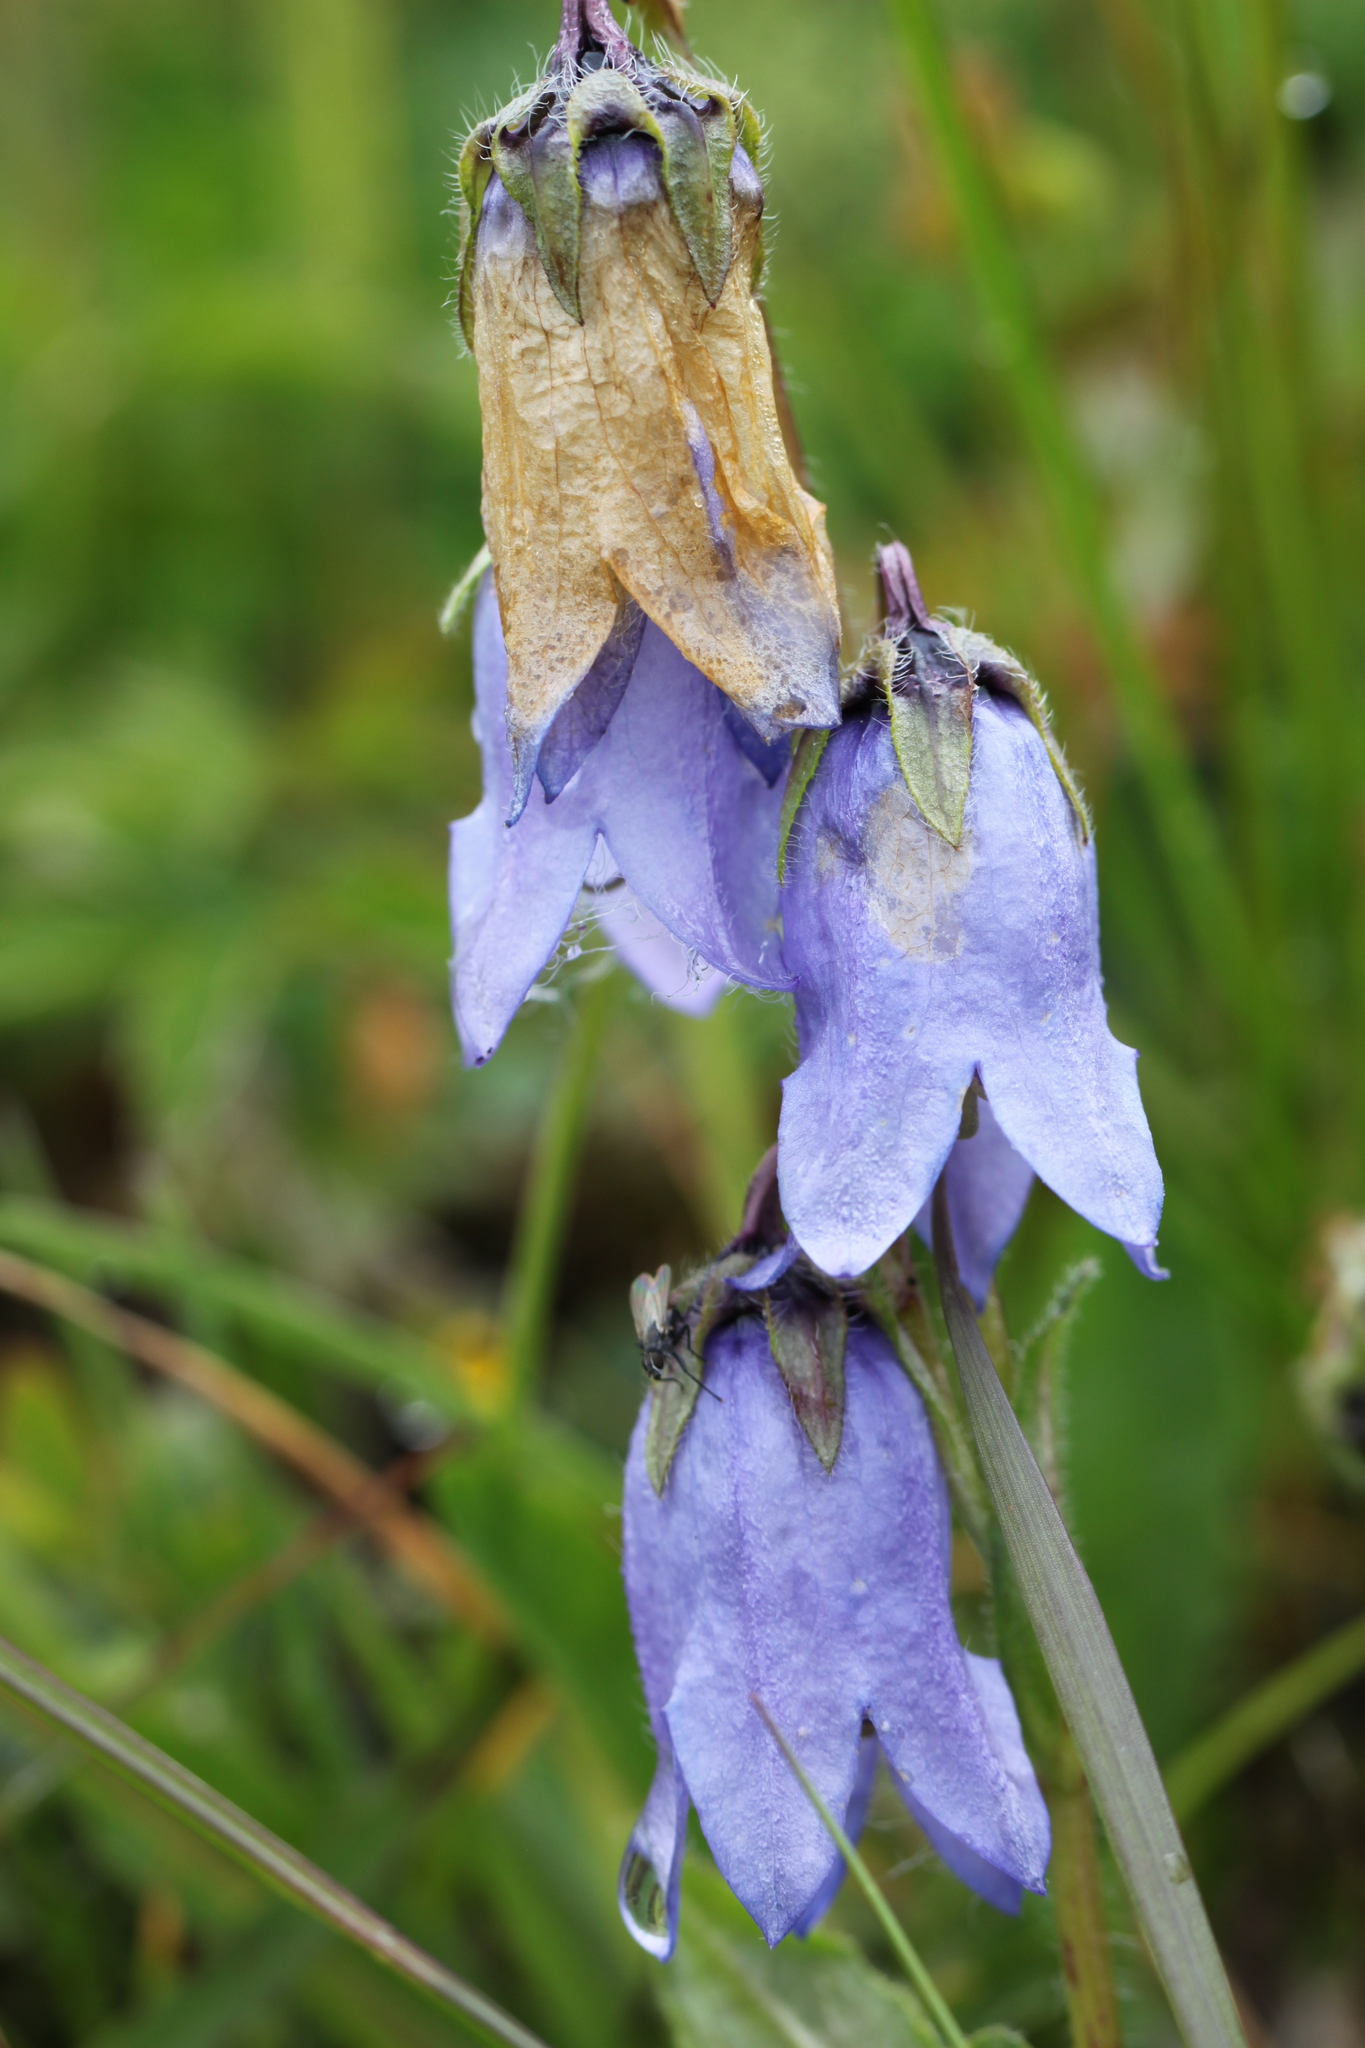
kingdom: Plantae
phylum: Tracheophyta
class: Magnoliopsida
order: Asterales
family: Campanulaceae
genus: Campanula
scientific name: Campanula barbata
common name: Bearded bellflower
